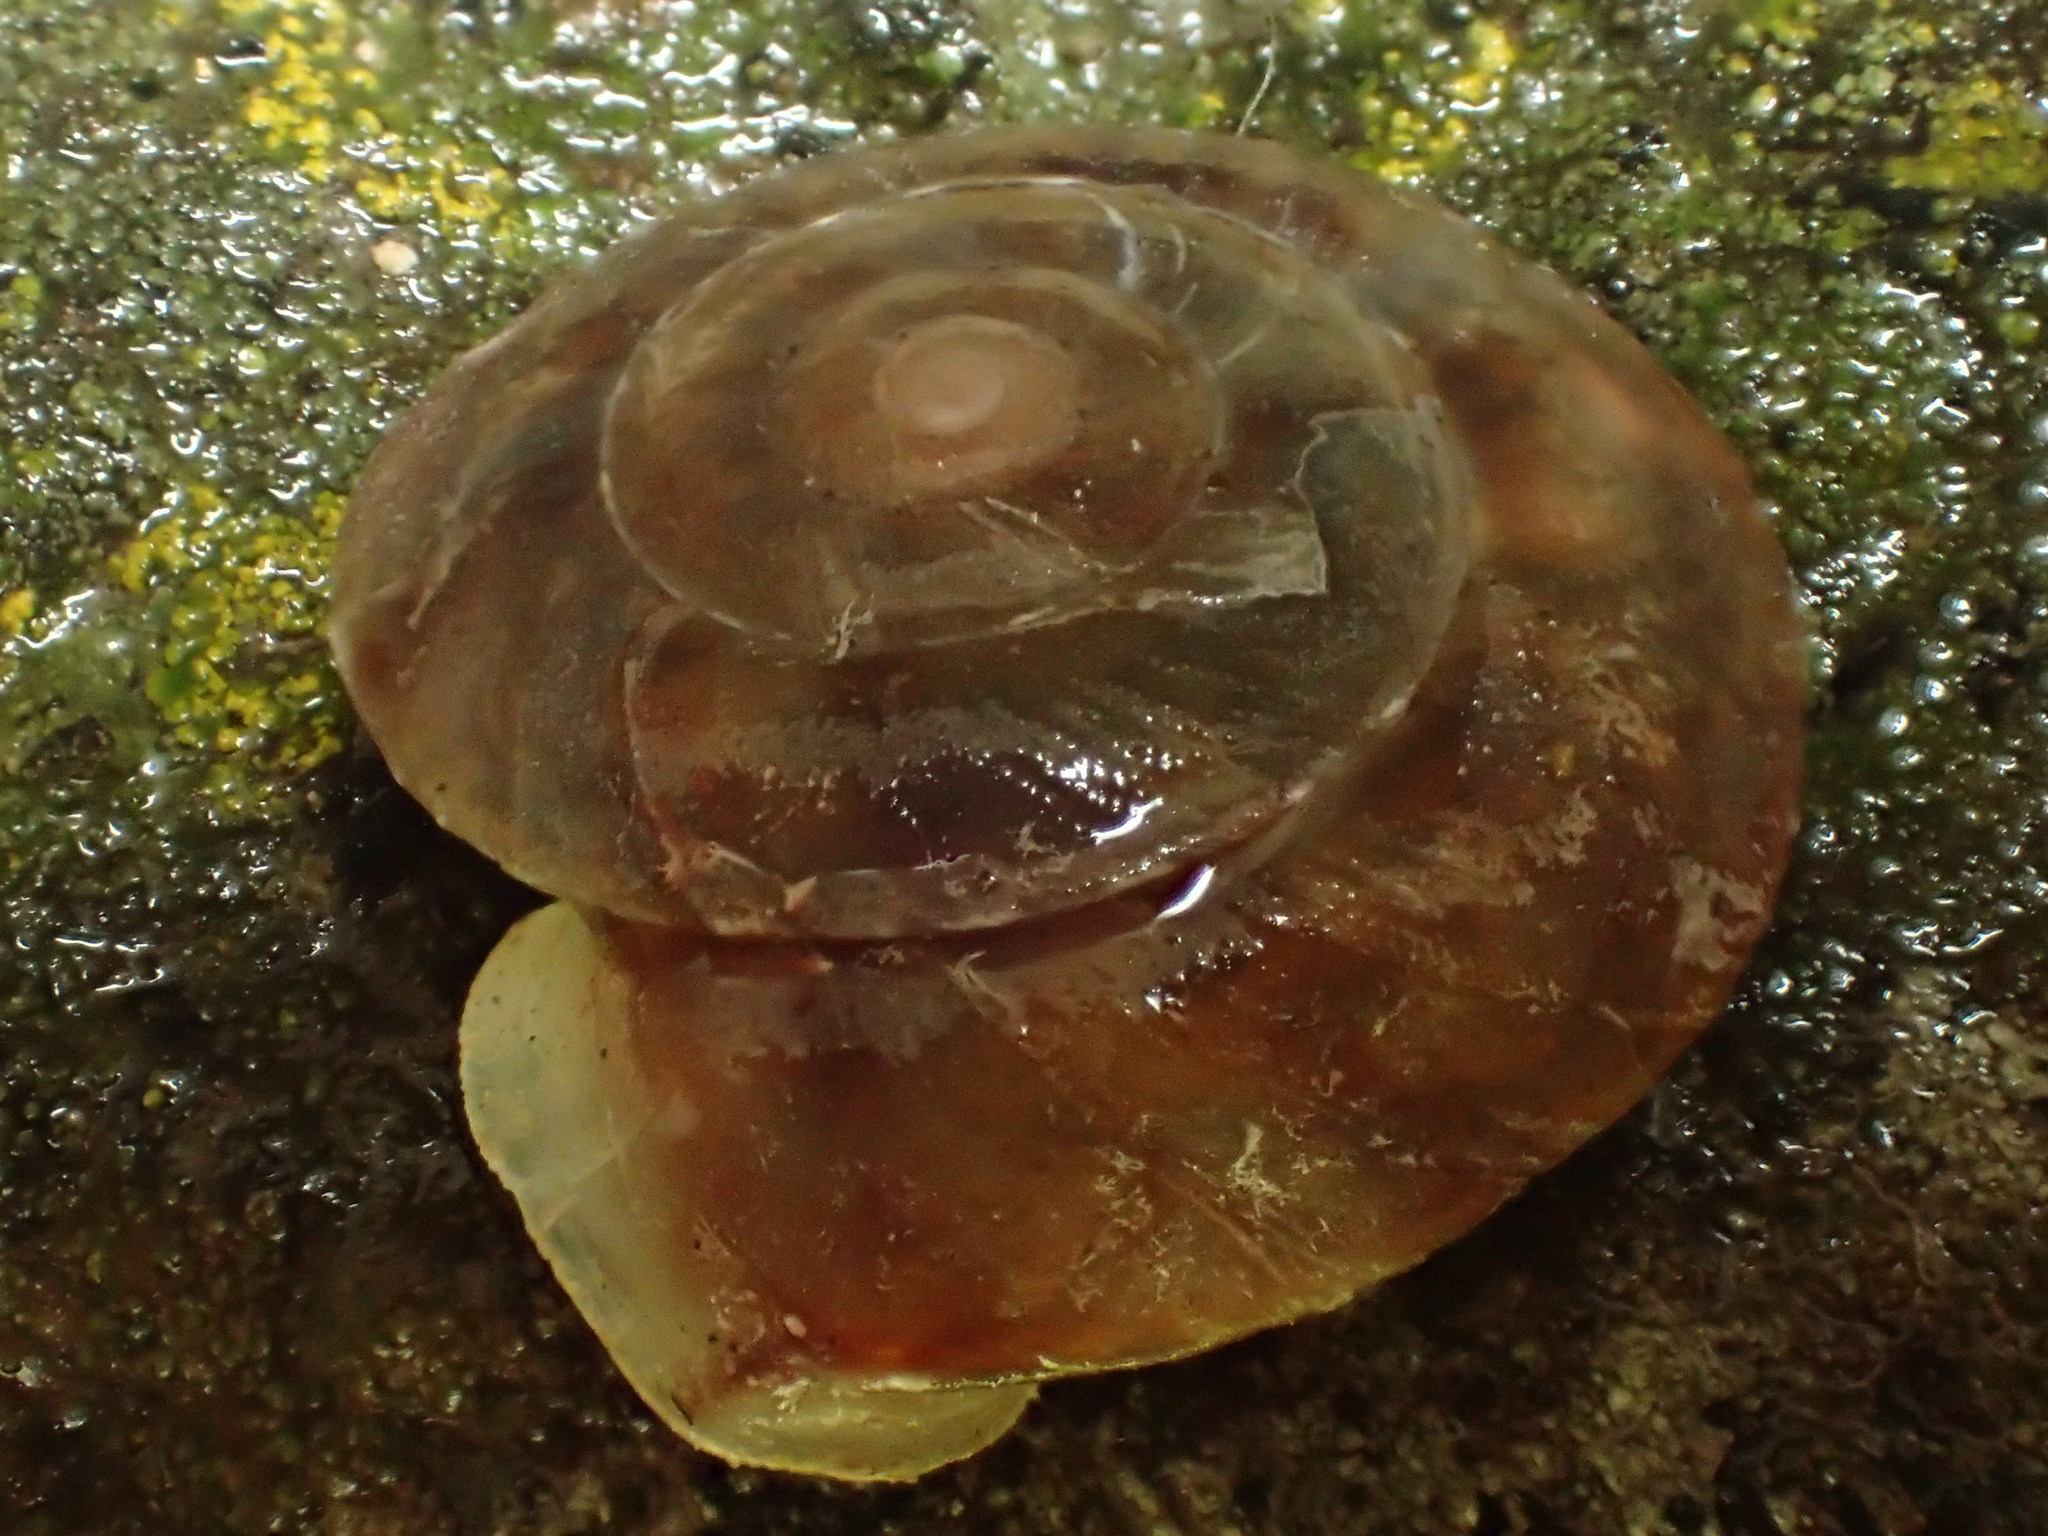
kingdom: Animalia
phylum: Mollusca
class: Gastropoda
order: Stylommatophora
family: Helicidae
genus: Helicigona
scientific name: Helicigona lapicida
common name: Lapidary snail
